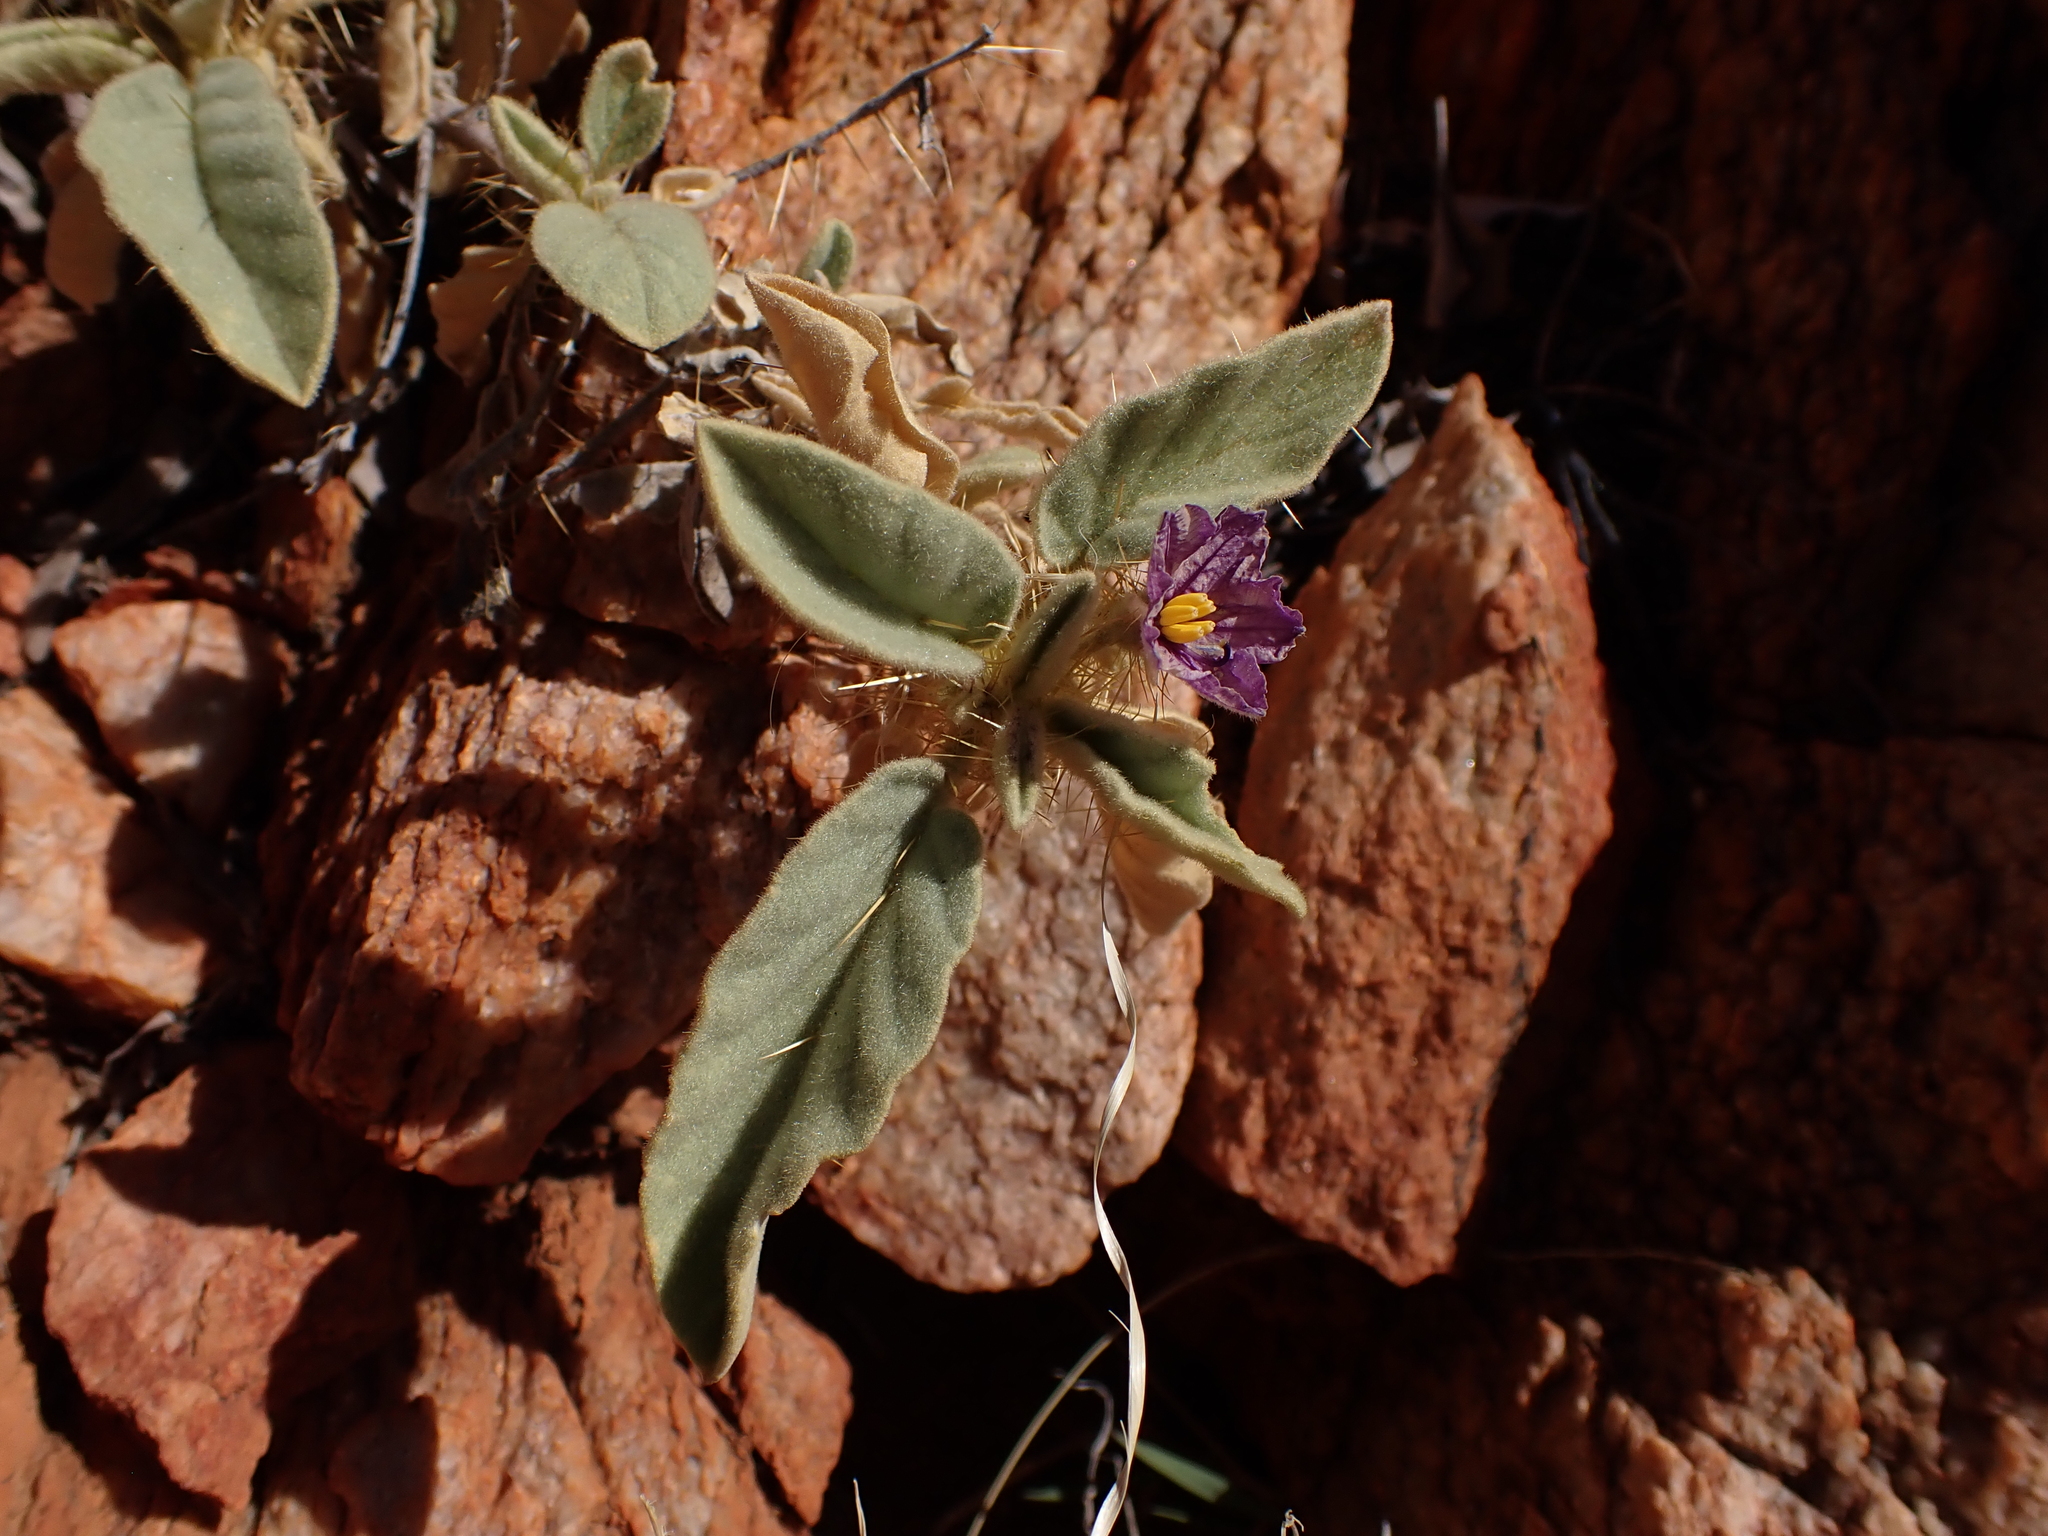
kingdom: Plantae
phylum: Tracheophyta
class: Magnoliopsida
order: Solanales
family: Solanaceae
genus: Solanum
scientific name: Solanum aridicola
